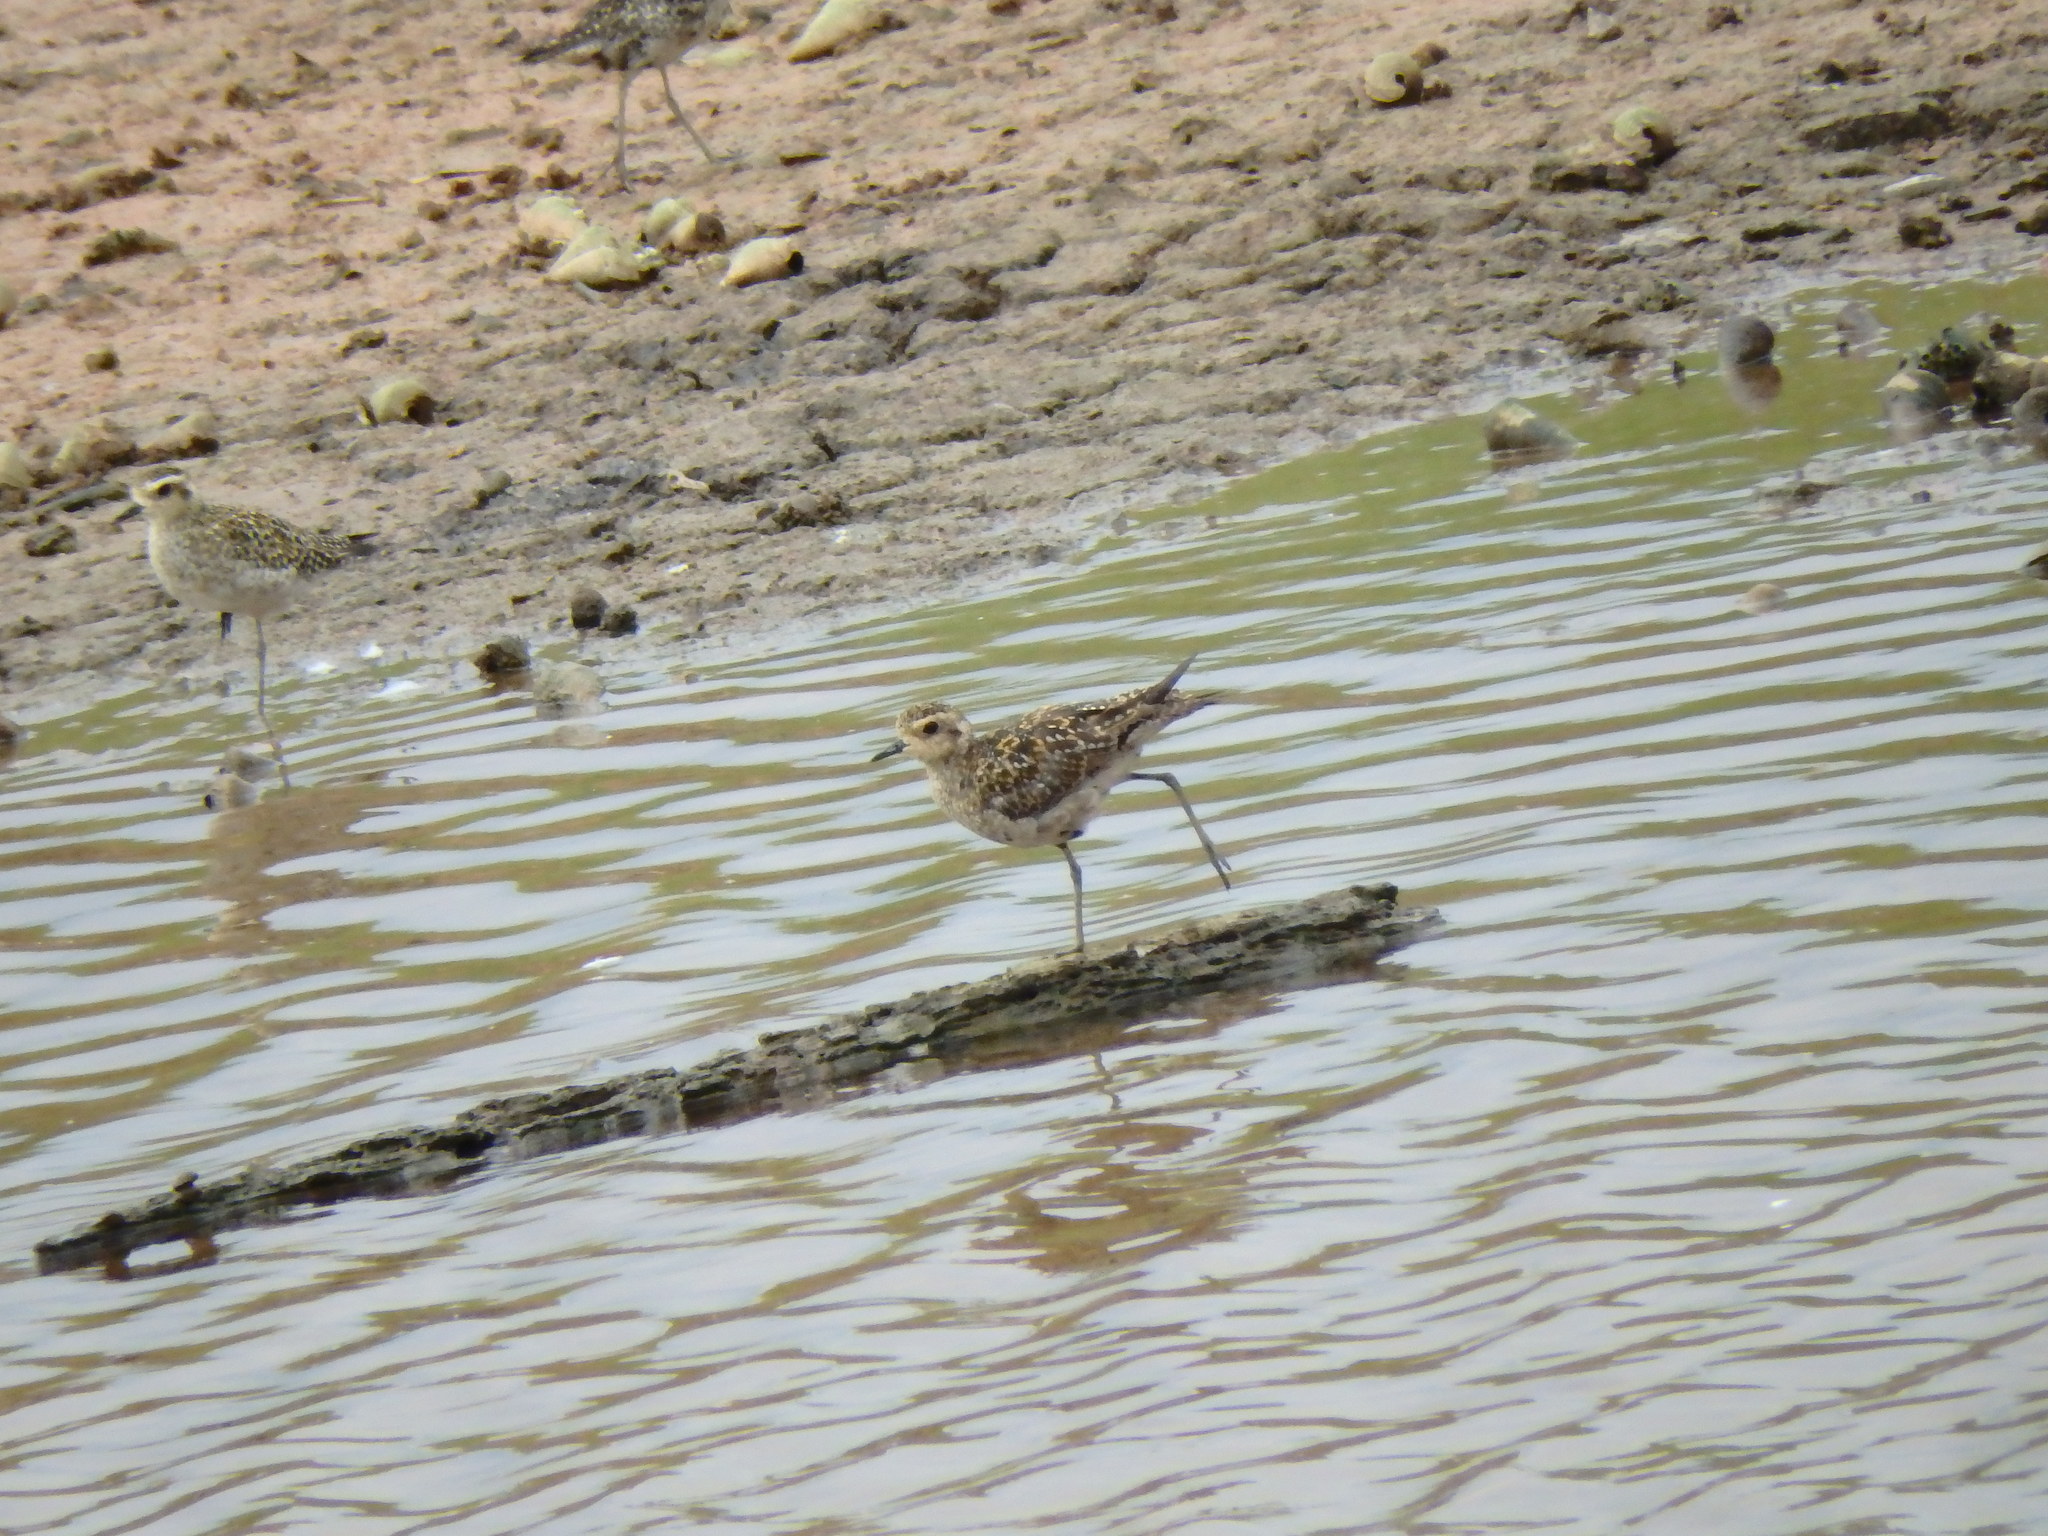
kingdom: Animalia
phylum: Chordata
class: Aves
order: Charadriiformes
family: Charadriidae
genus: Pluvialis
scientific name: Pluvialis fulva
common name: Pacific golden plover
